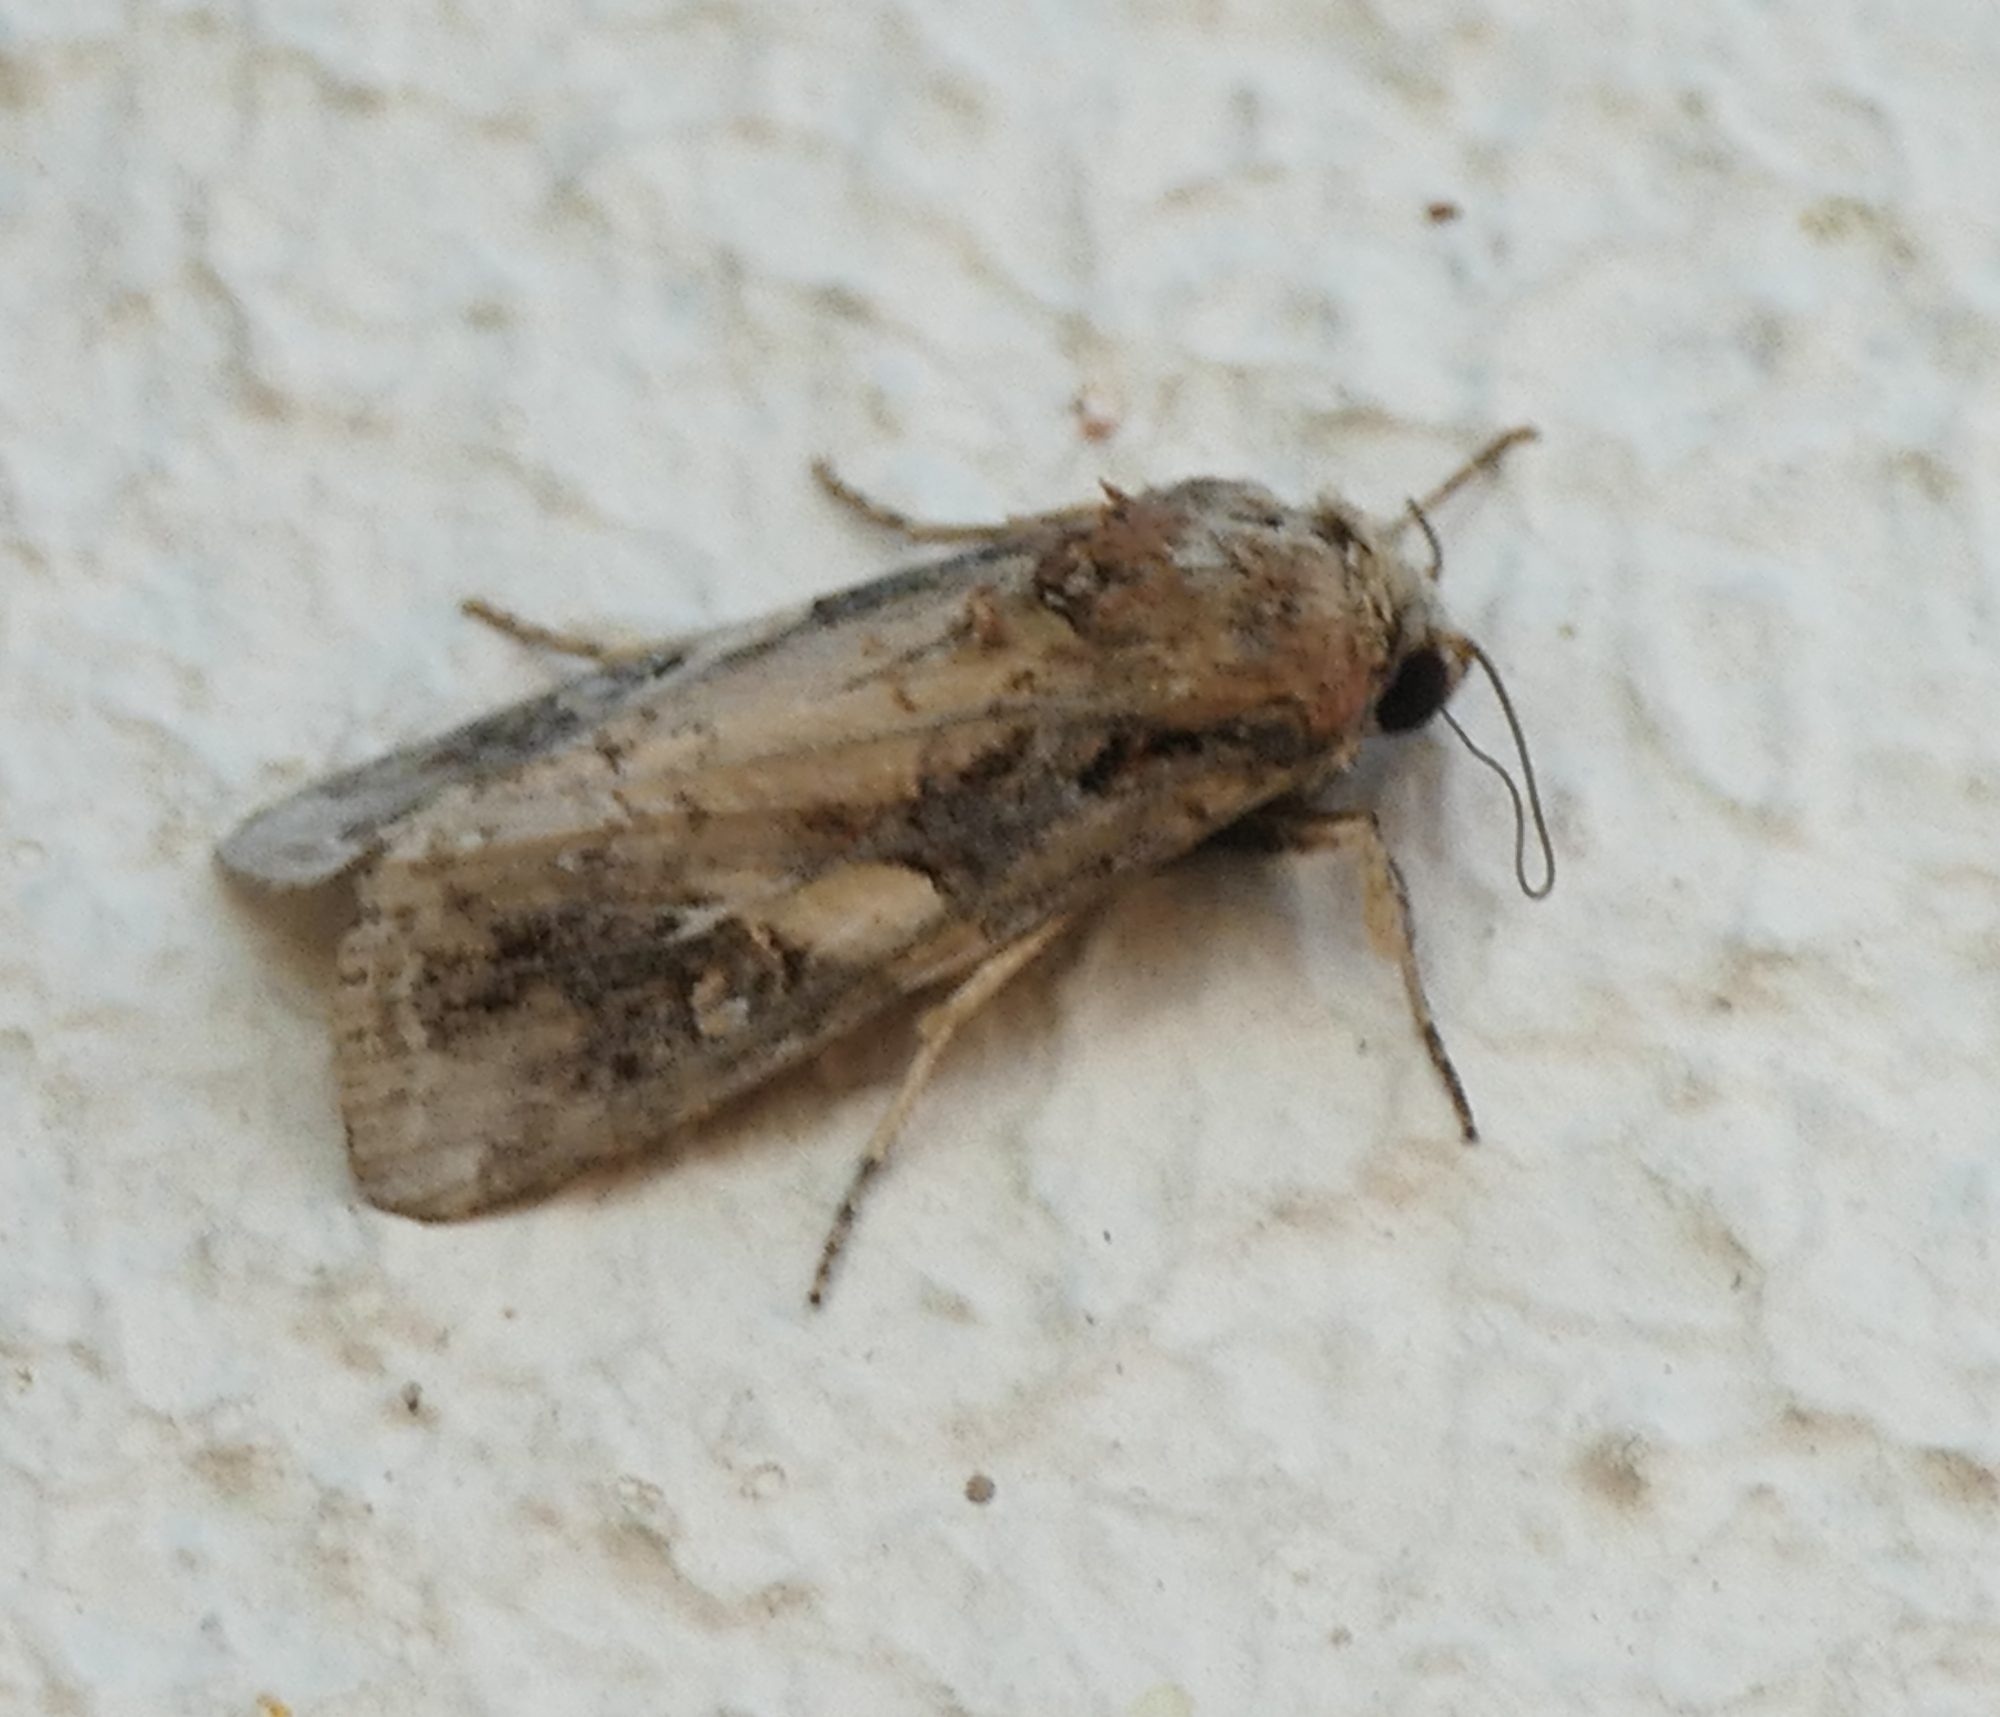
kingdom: Animalia
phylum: Arthropoda
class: Insecta
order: Lepidoptera
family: Noctuidae
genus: Spodoptera
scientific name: Spodoptera frugiperda
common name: Fall armyworm
